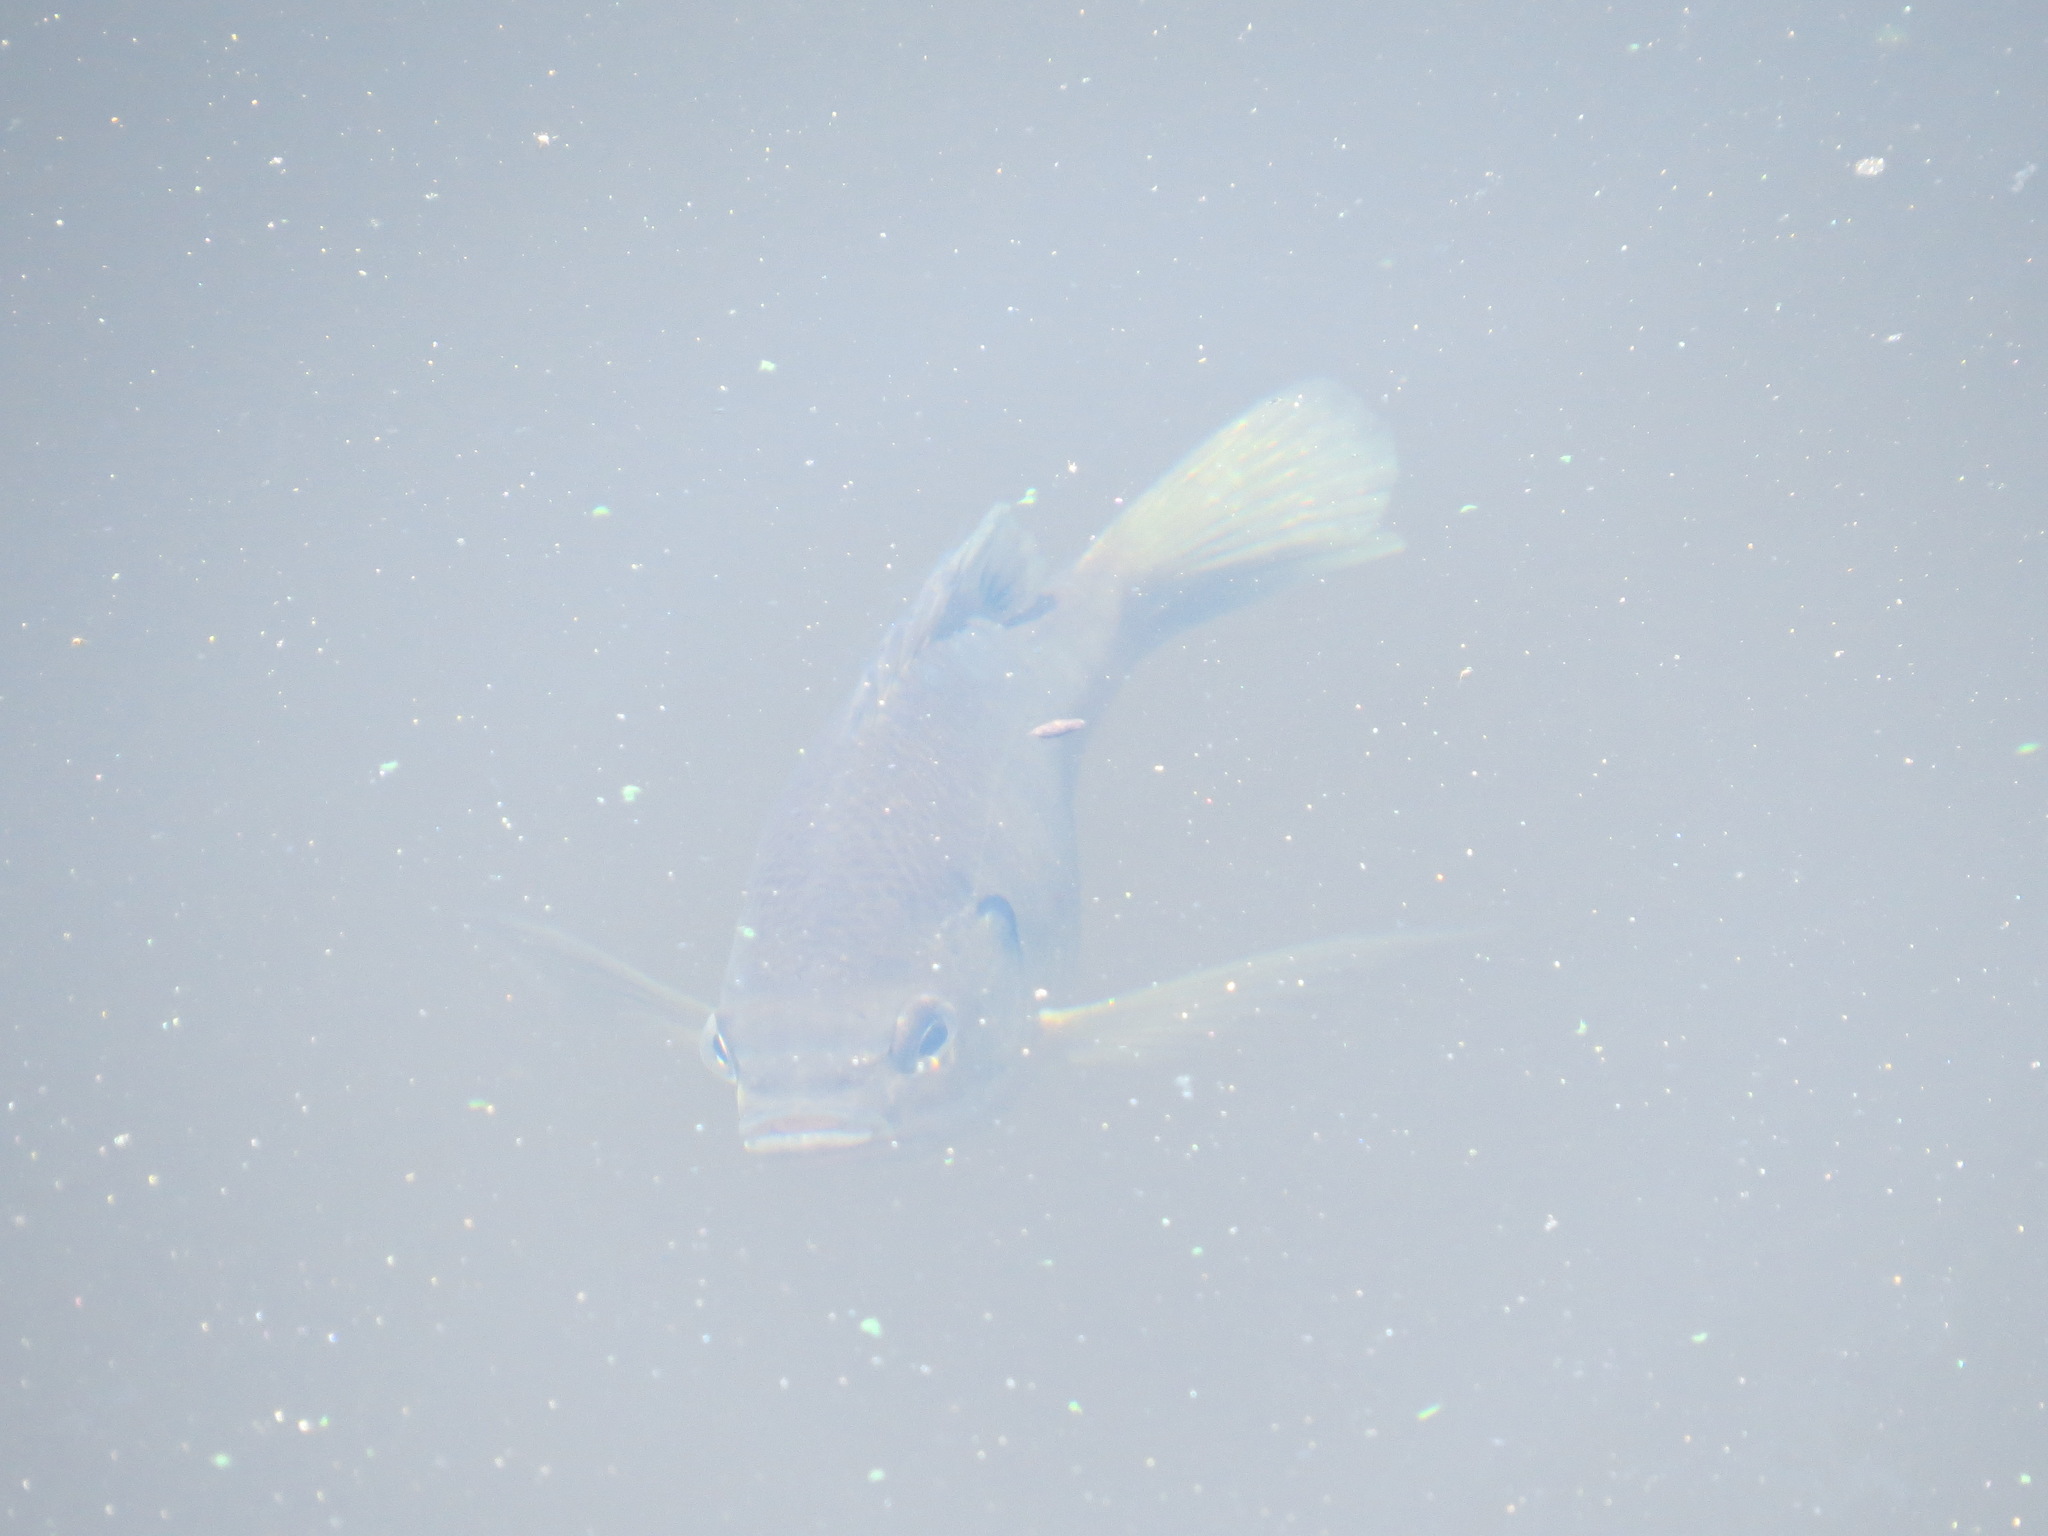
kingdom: Animalia
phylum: Chordata
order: Perciformes
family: Centrarchidae
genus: Lepomis
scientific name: Lepomis macrochirus
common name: Bluegill
